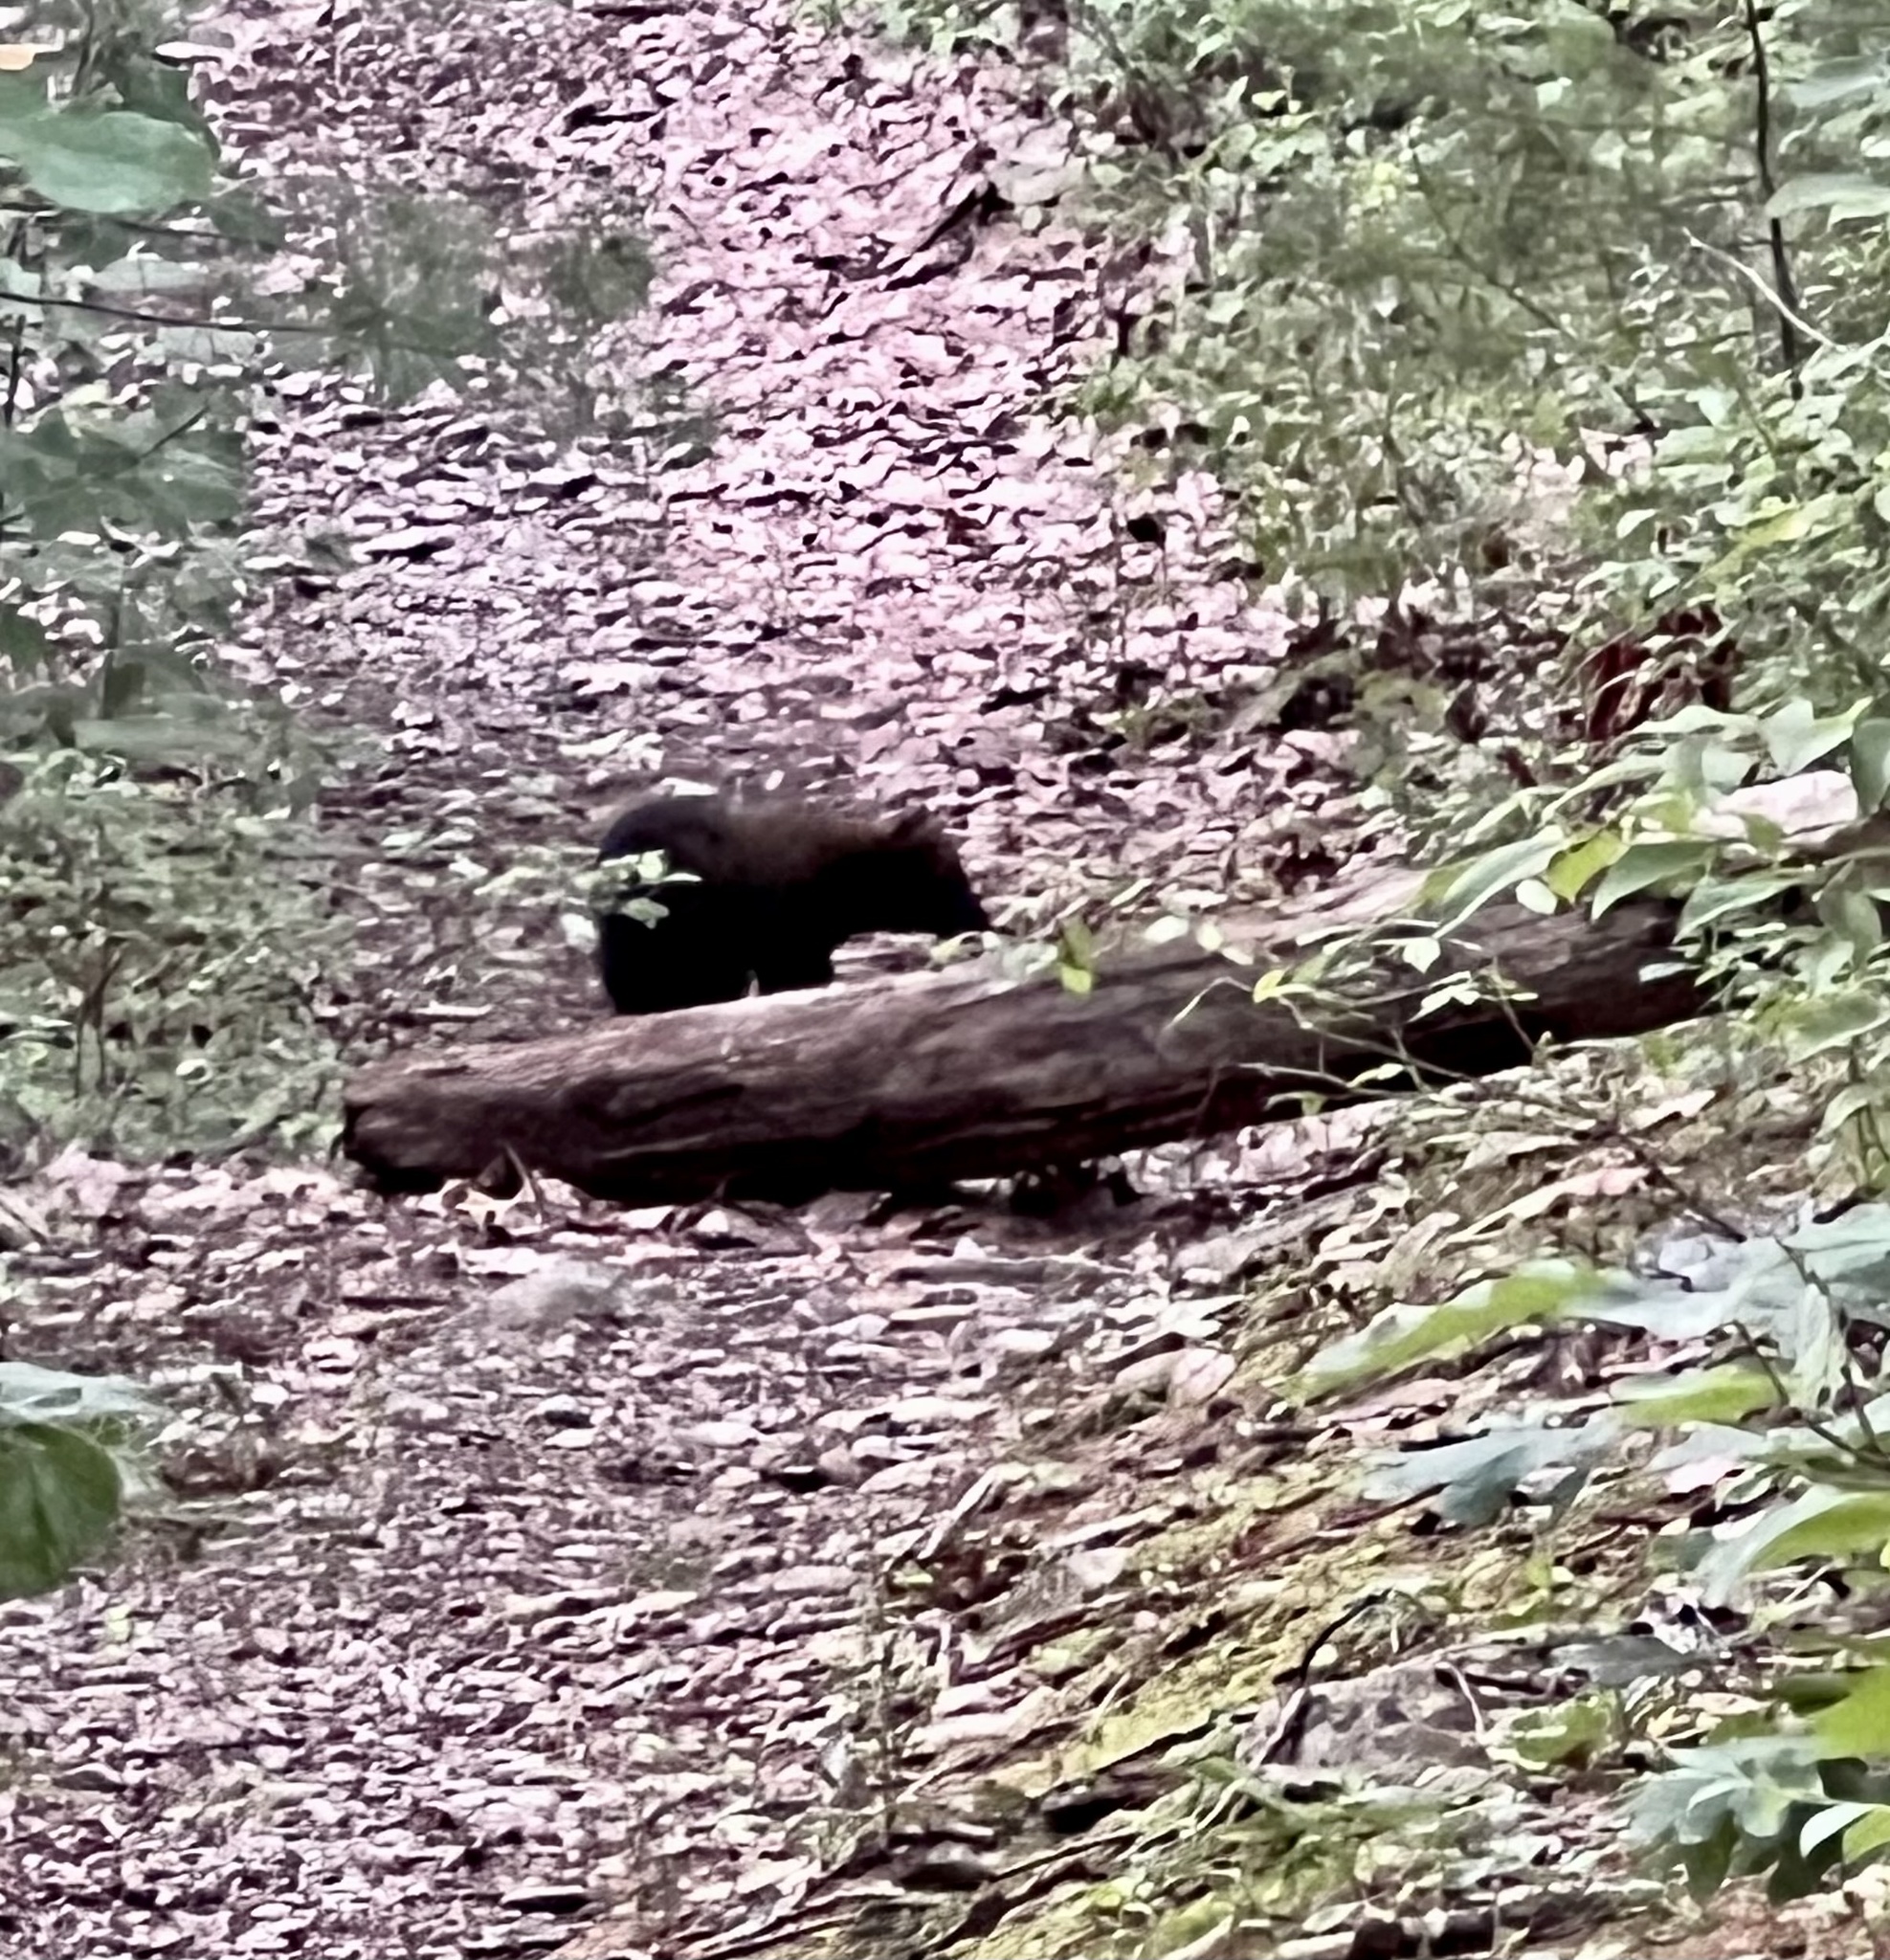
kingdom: Animalia
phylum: Chordata
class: Mammalia
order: Carnivora
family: Mustelidae
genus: Pekania
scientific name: Pekania pennanti
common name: Fisher
